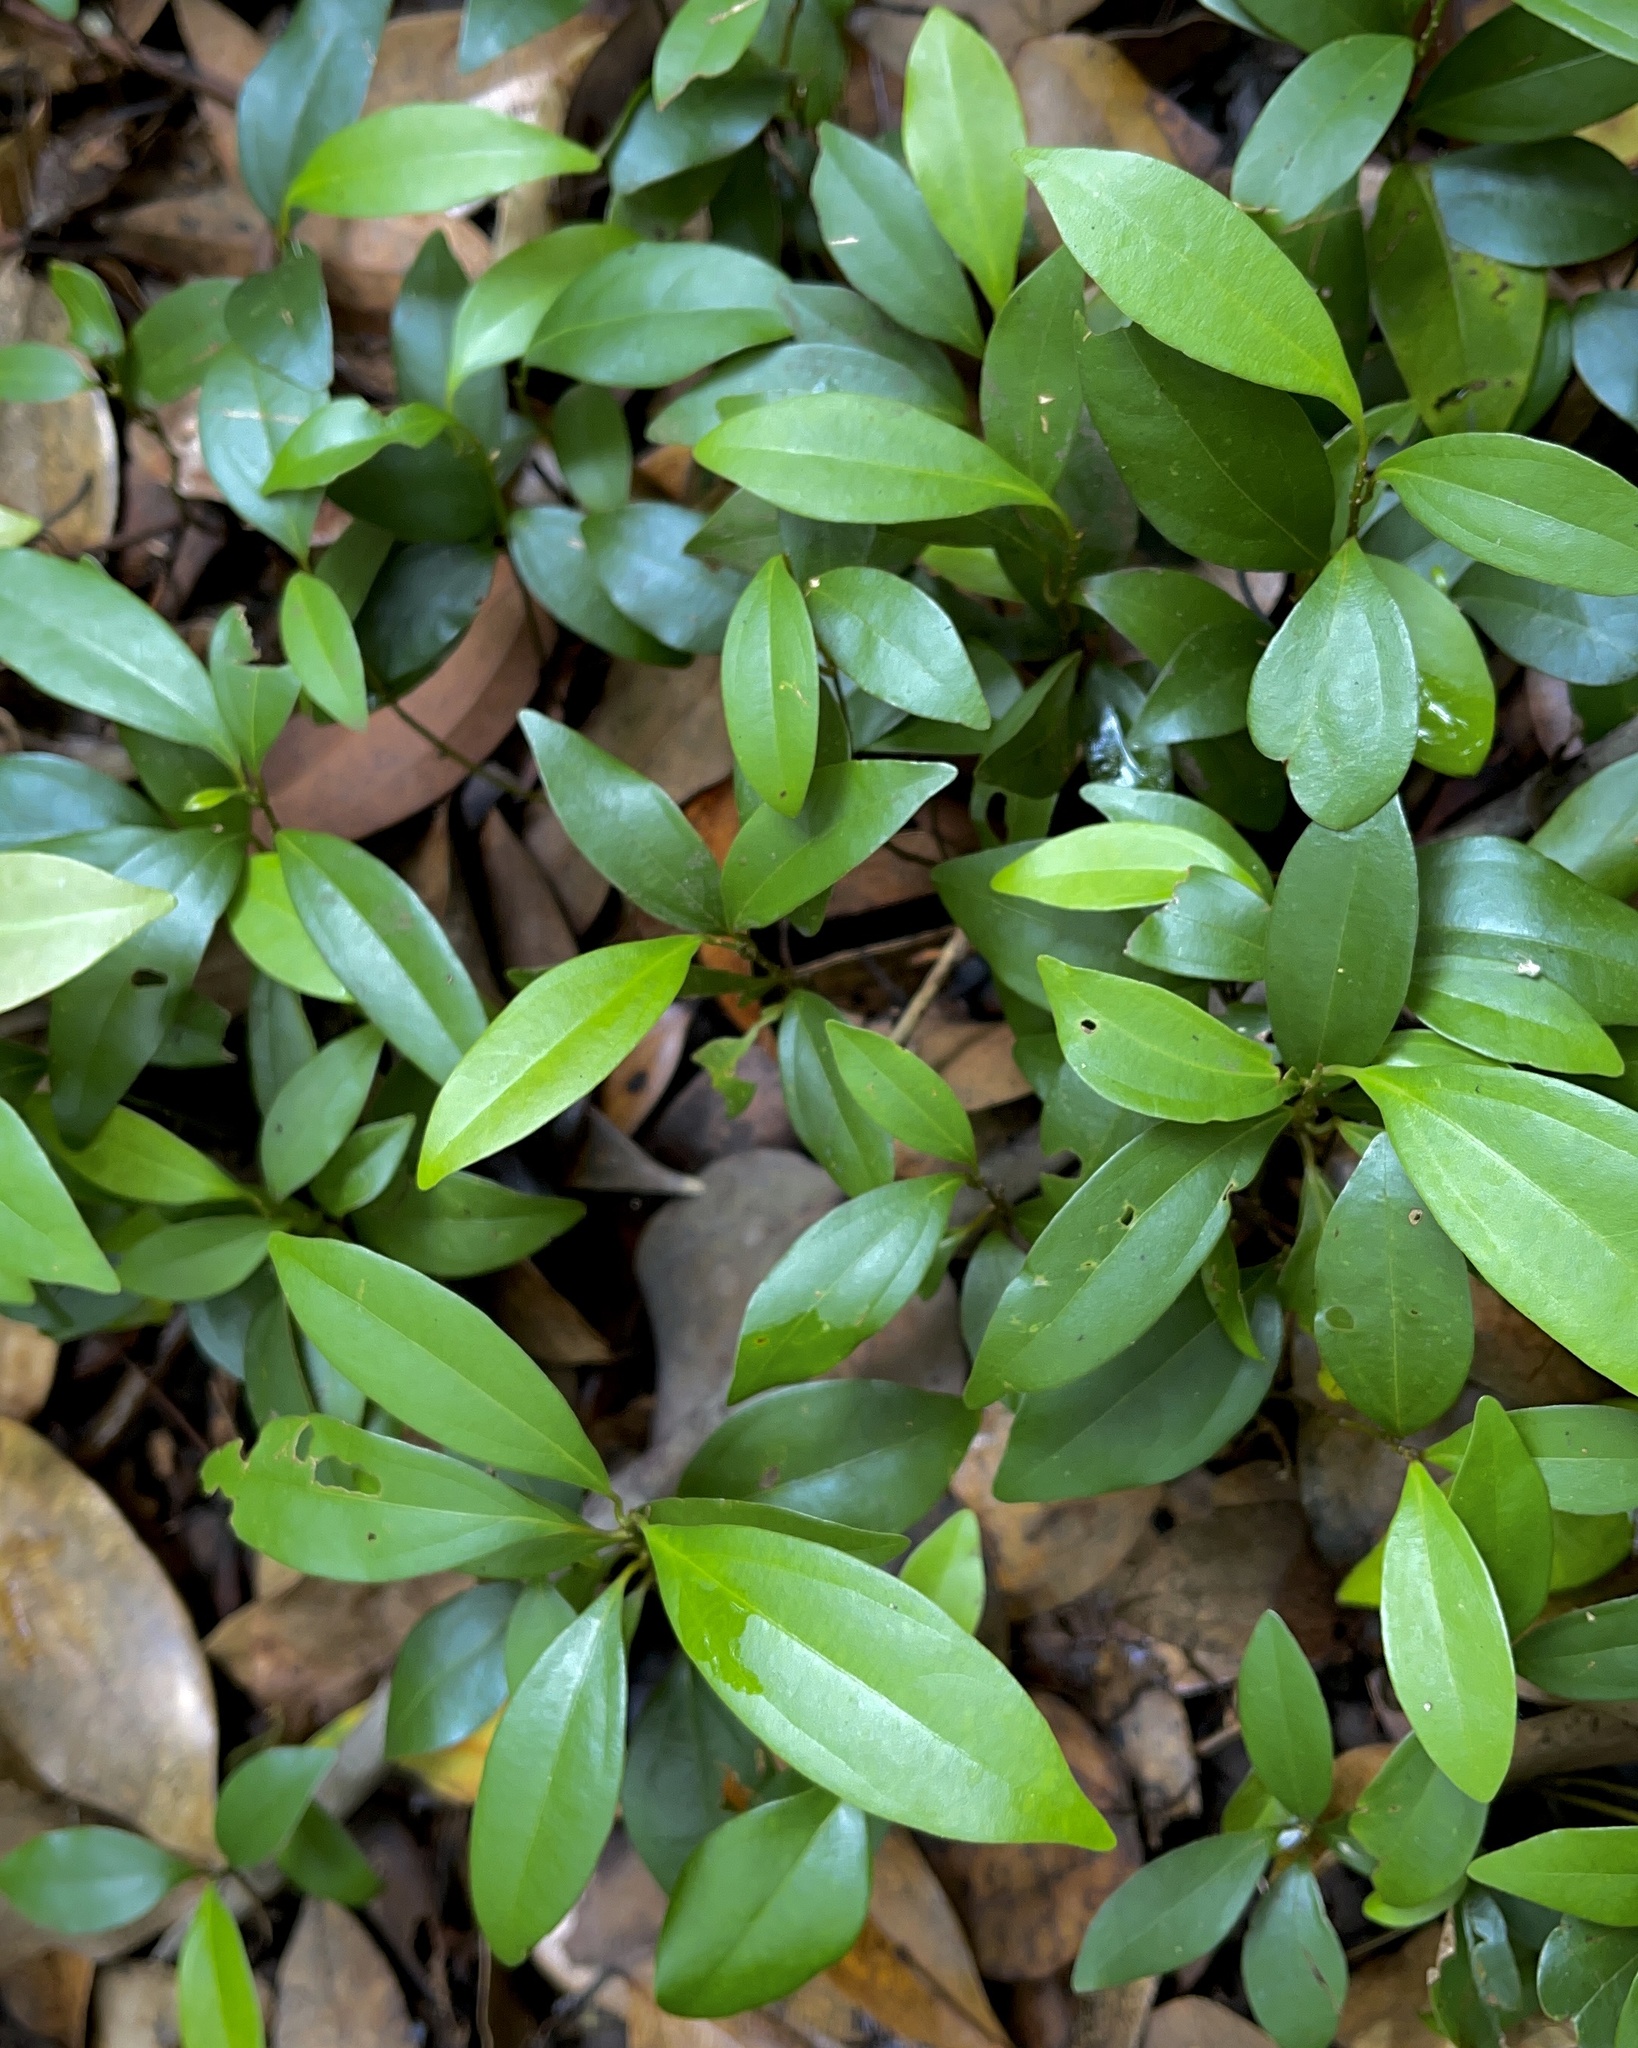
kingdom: Plantae
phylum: Tracheophyta
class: Magnoliopsida
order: Laurales
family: Lauraceae
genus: Cinnamomum
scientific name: Cinnamomum burmanni
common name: Padang cassia
